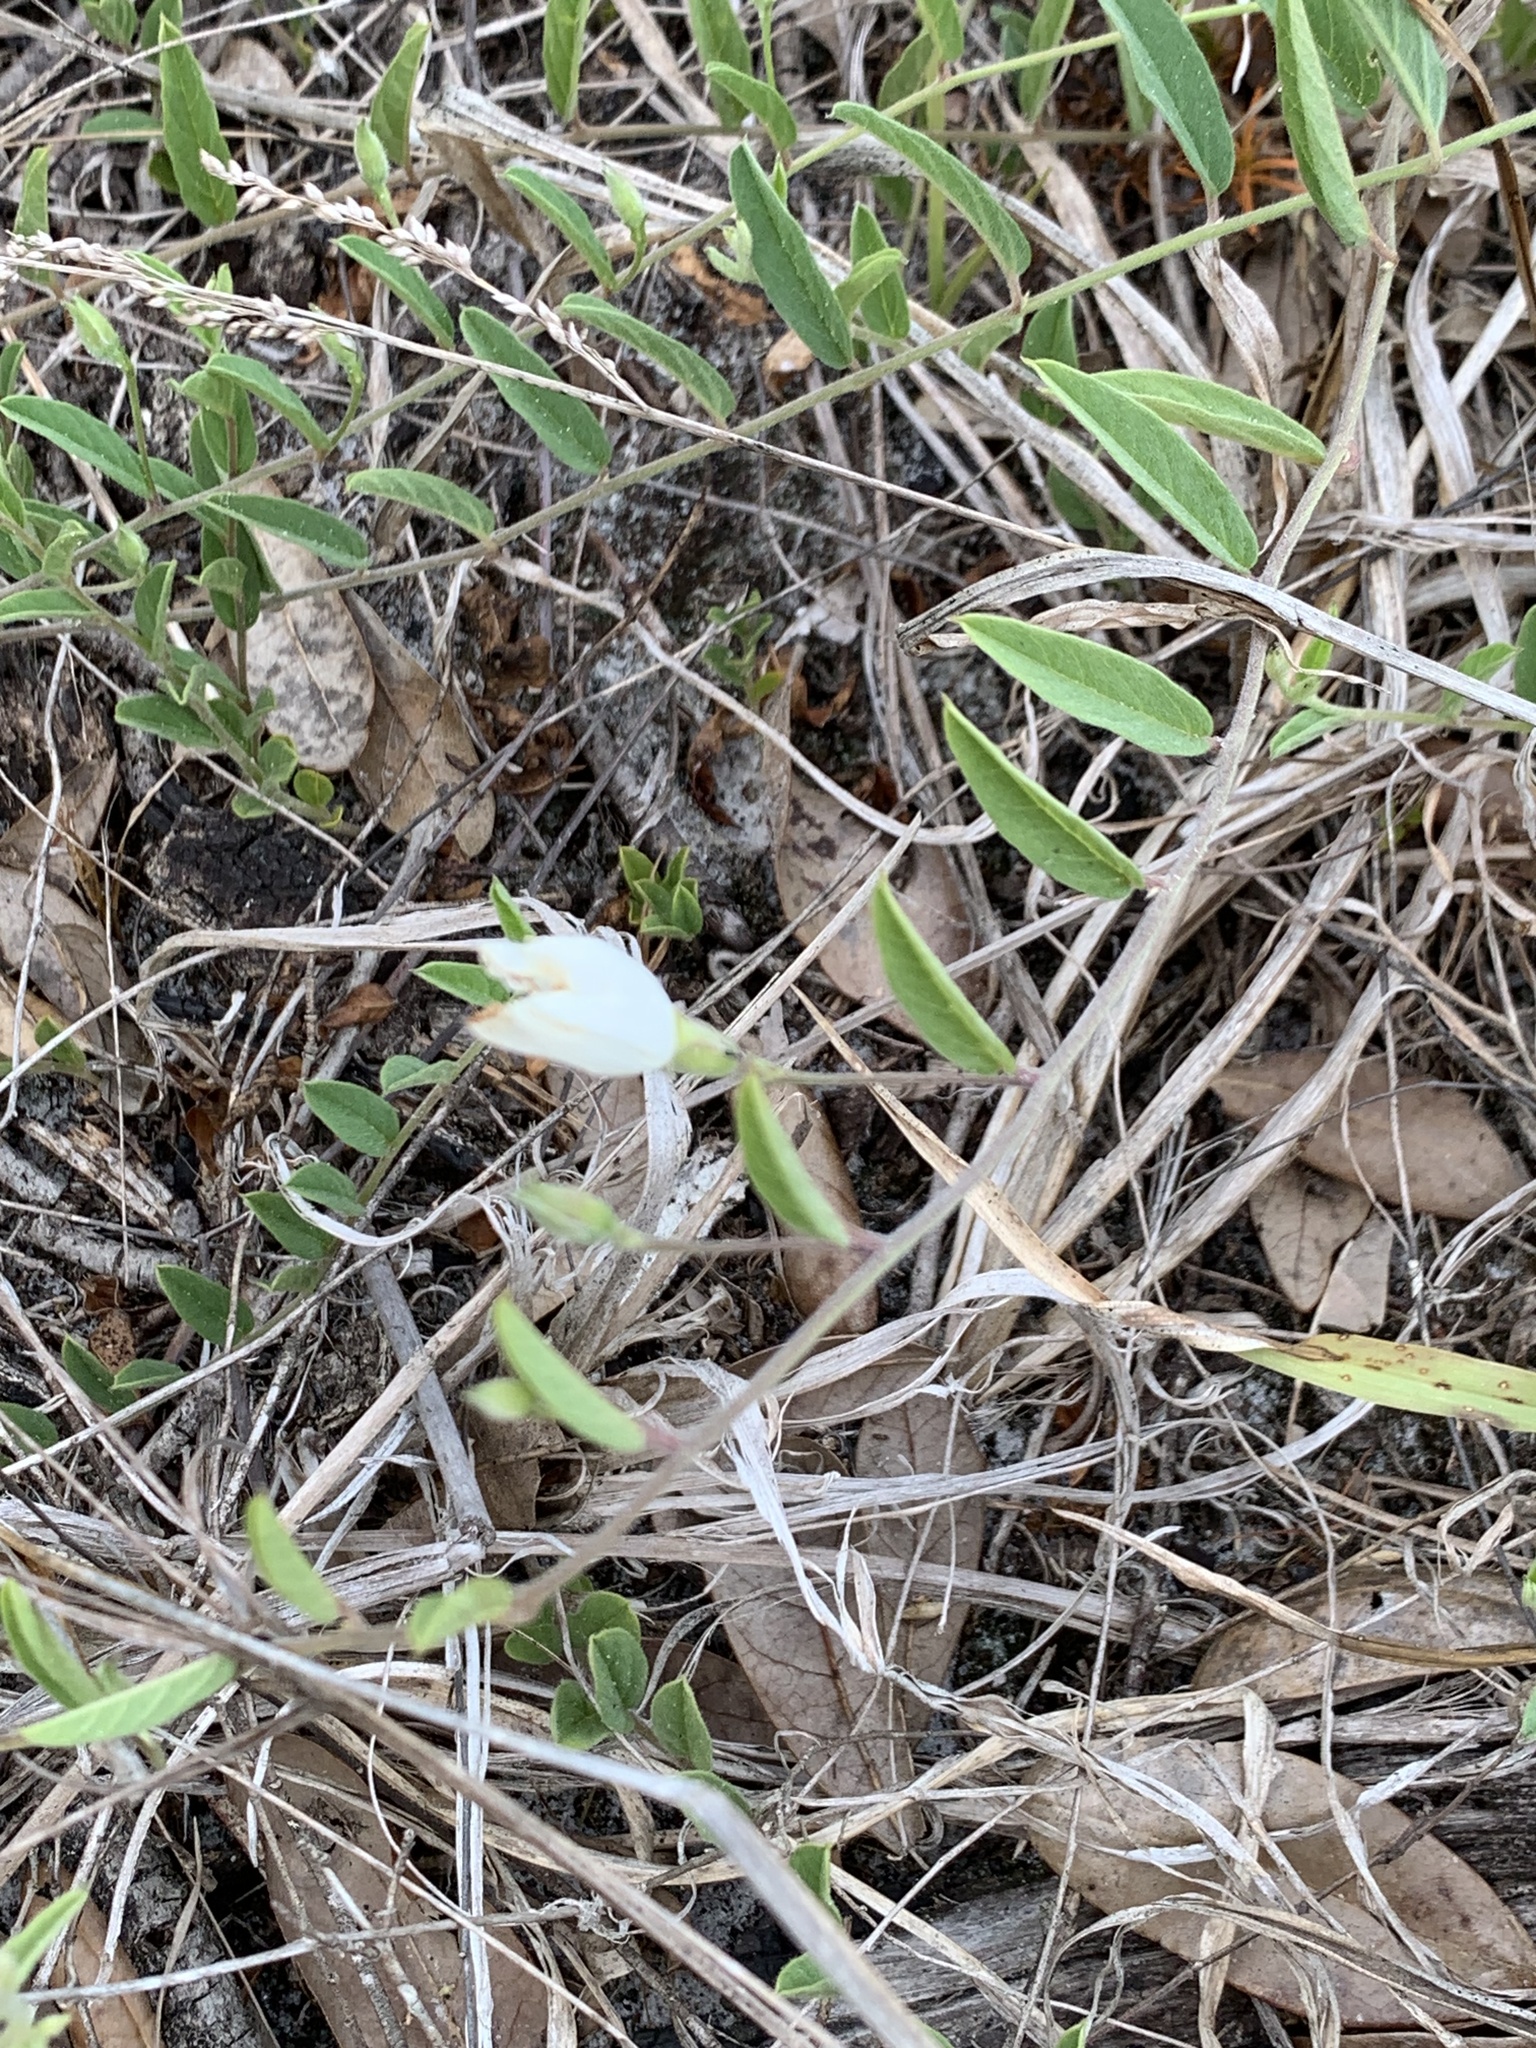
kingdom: Plantae
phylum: Tracheophyta
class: Magnoliopsida
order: Solanales
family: Convolvulaceae
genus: Stylisma
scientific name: Stylisma patens
